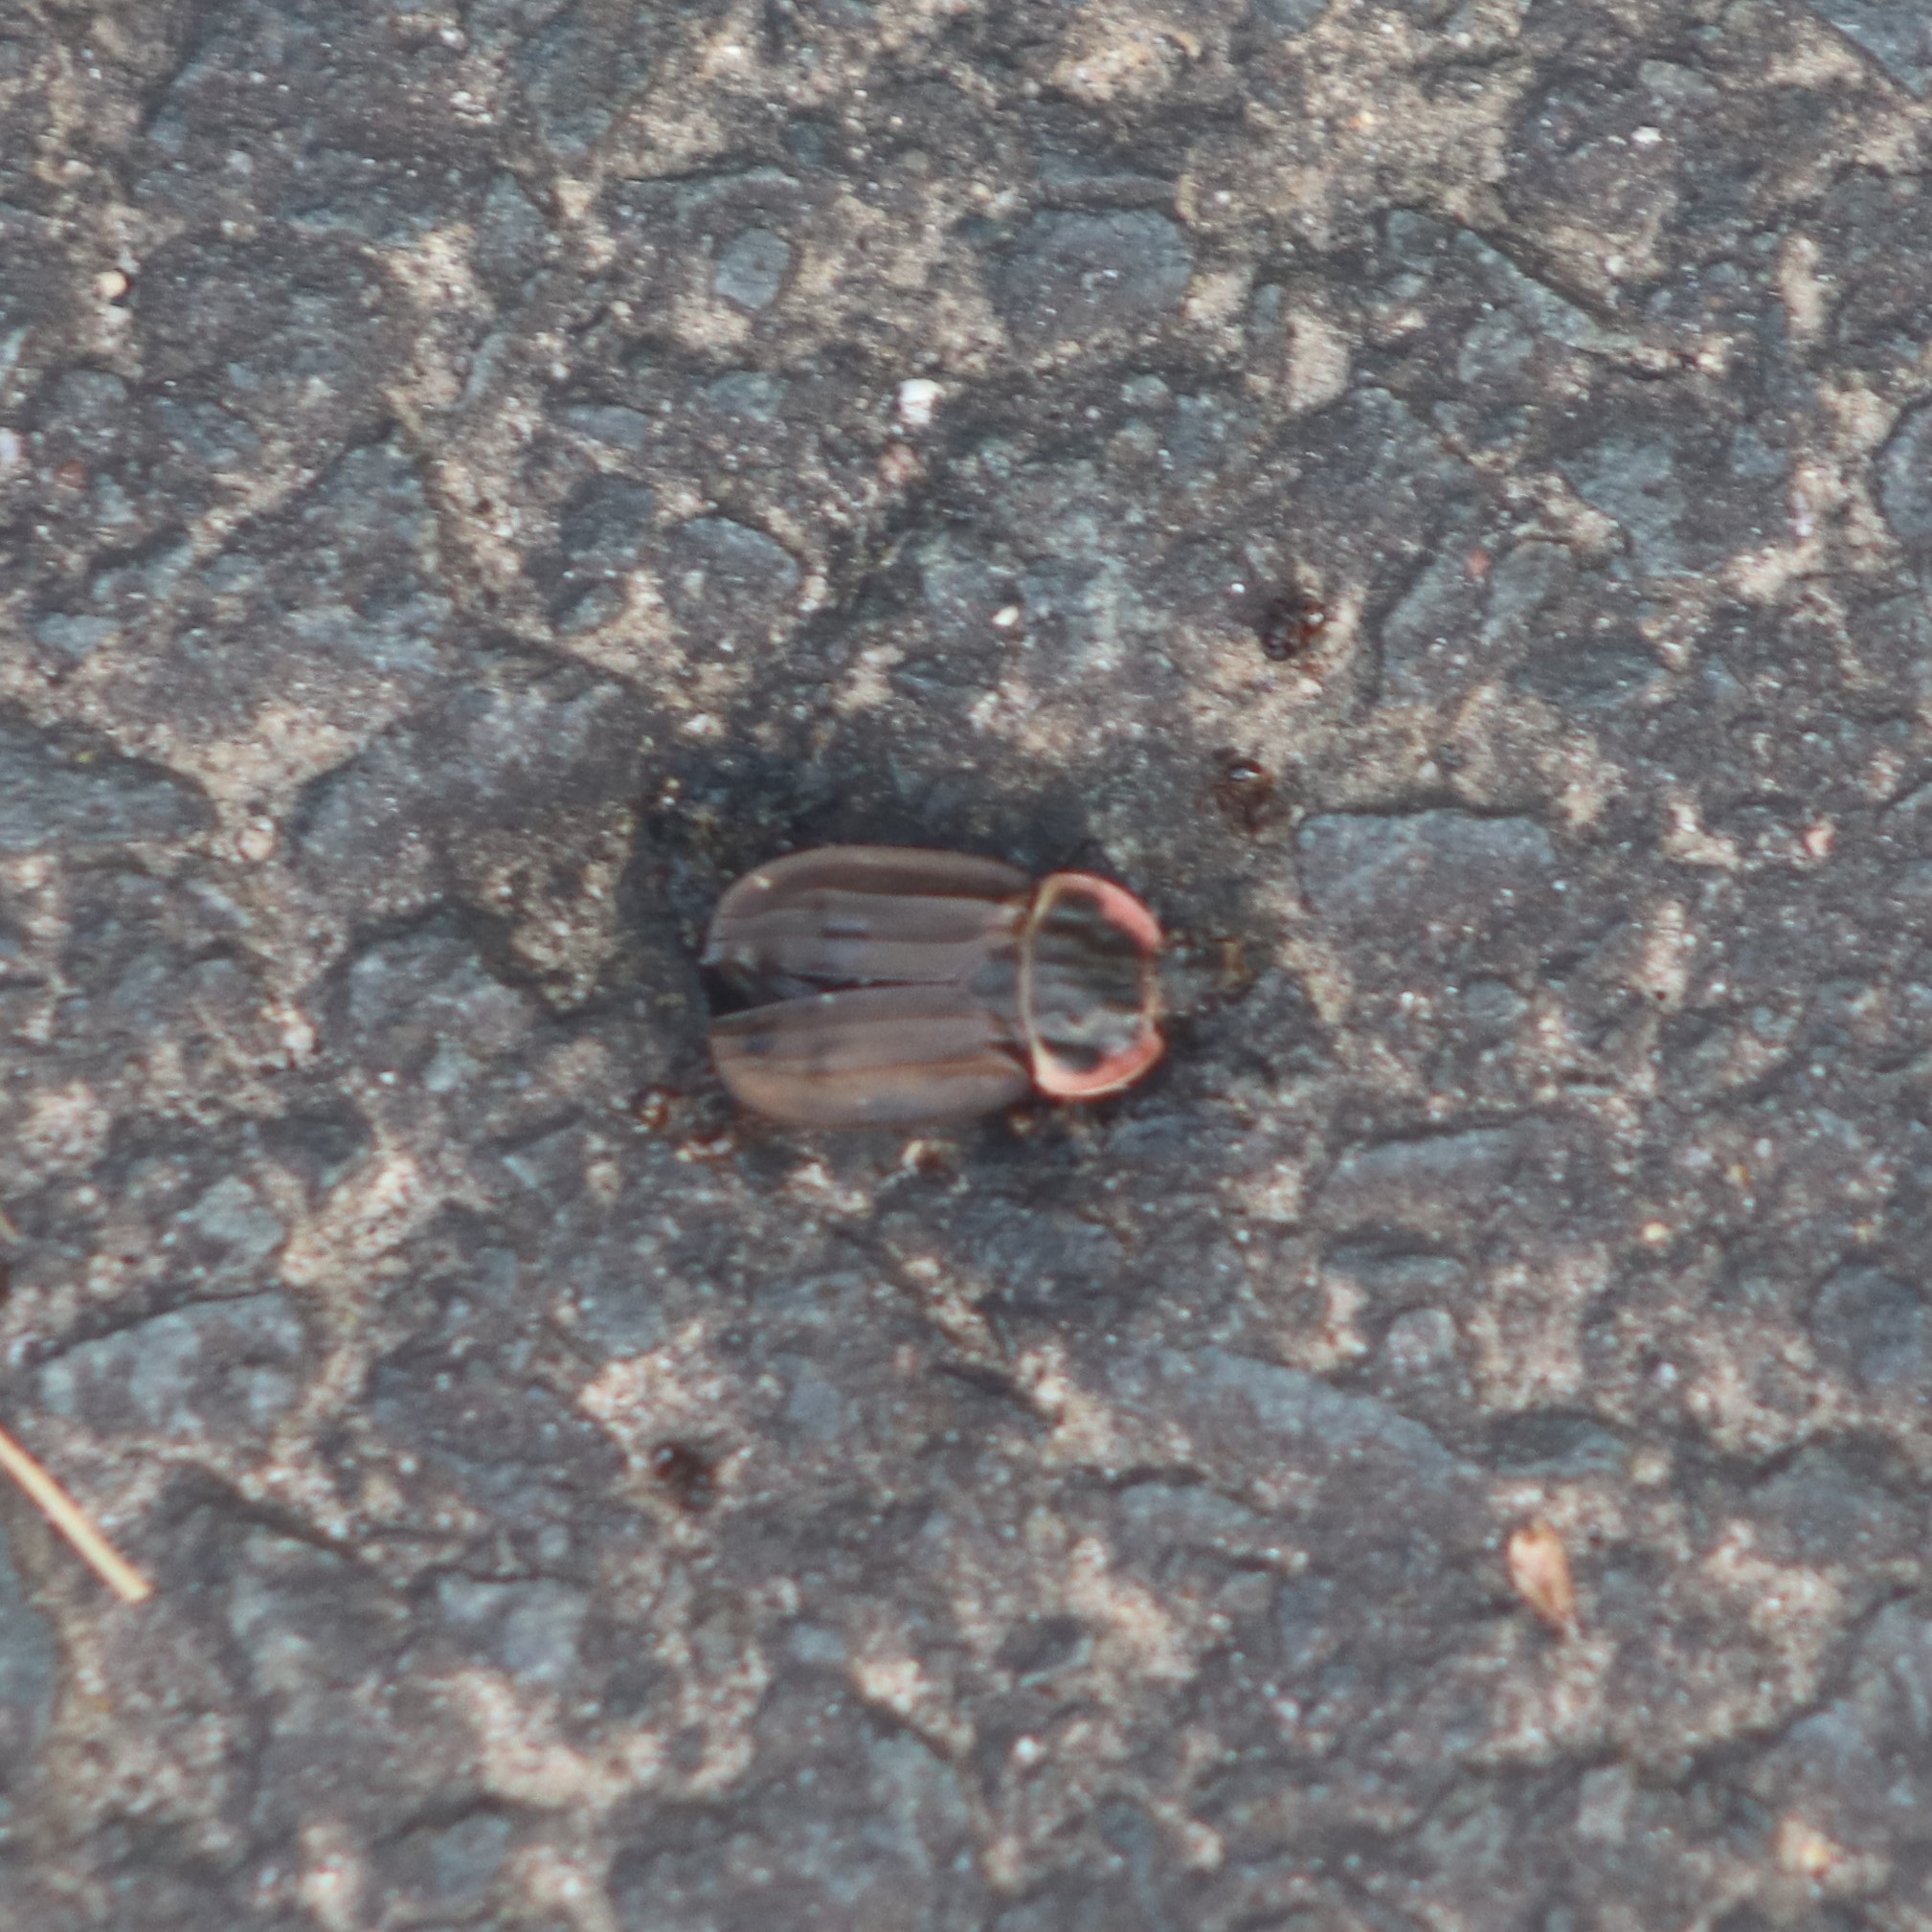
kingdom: Animalia
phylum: Arthropoda
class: Insecta
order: Coleoptera
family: Staphylinidae
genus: Oiceoptoma
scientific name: Oiceoptoma noveboracense
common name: Margined carrion beetle
